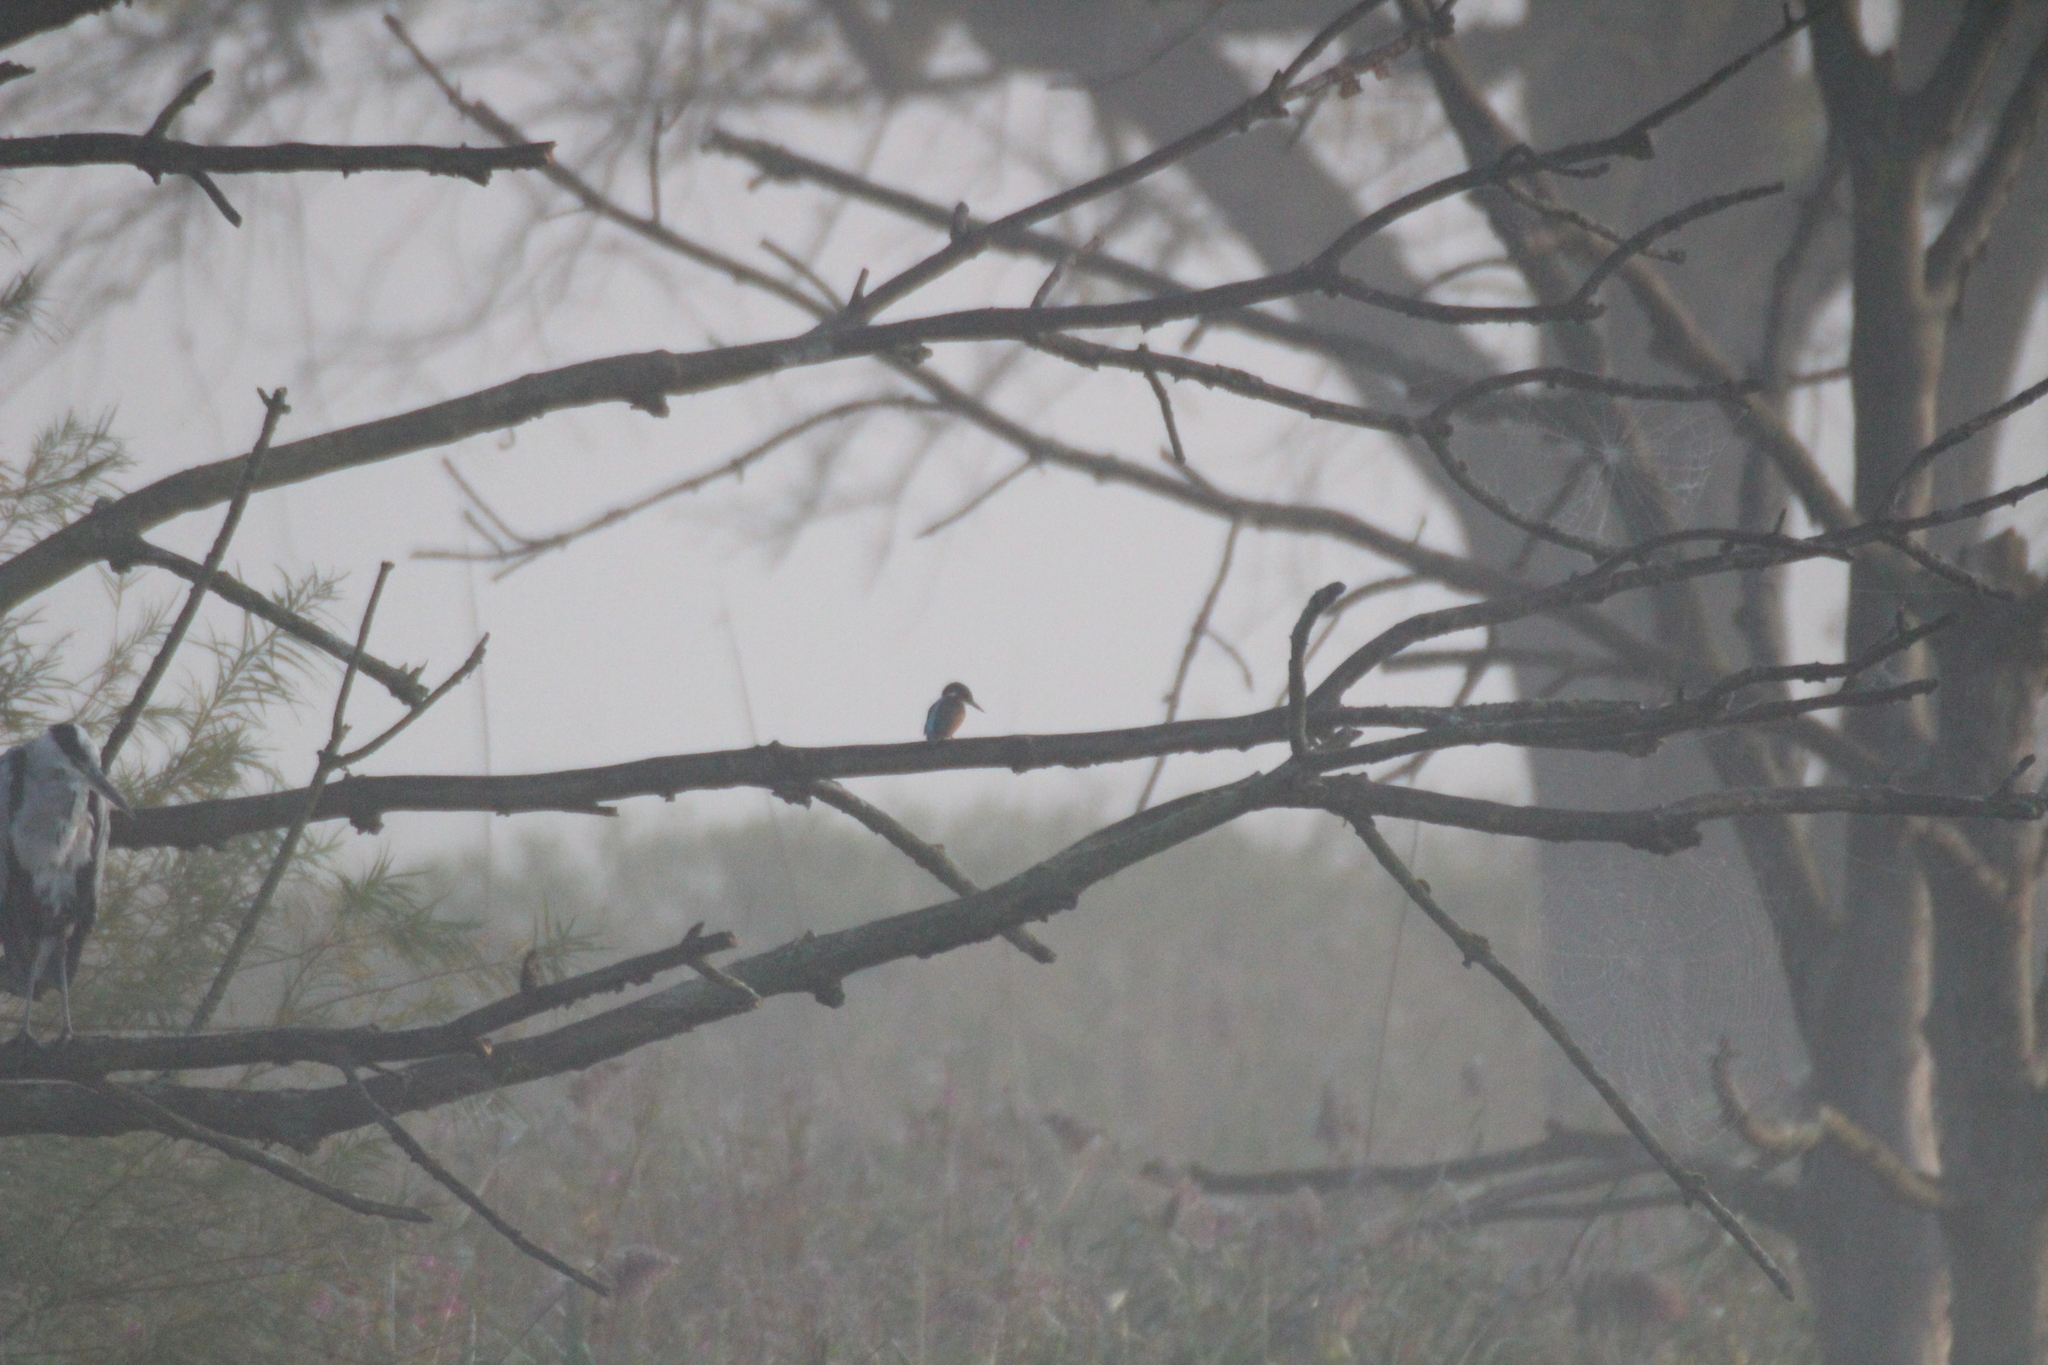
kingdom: Animalia
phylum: Chordata
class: Aves
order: Coraciiformes
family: Alcedinidae
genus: Alcedo
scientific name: Alcedo atthis
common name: Common kingfisher
